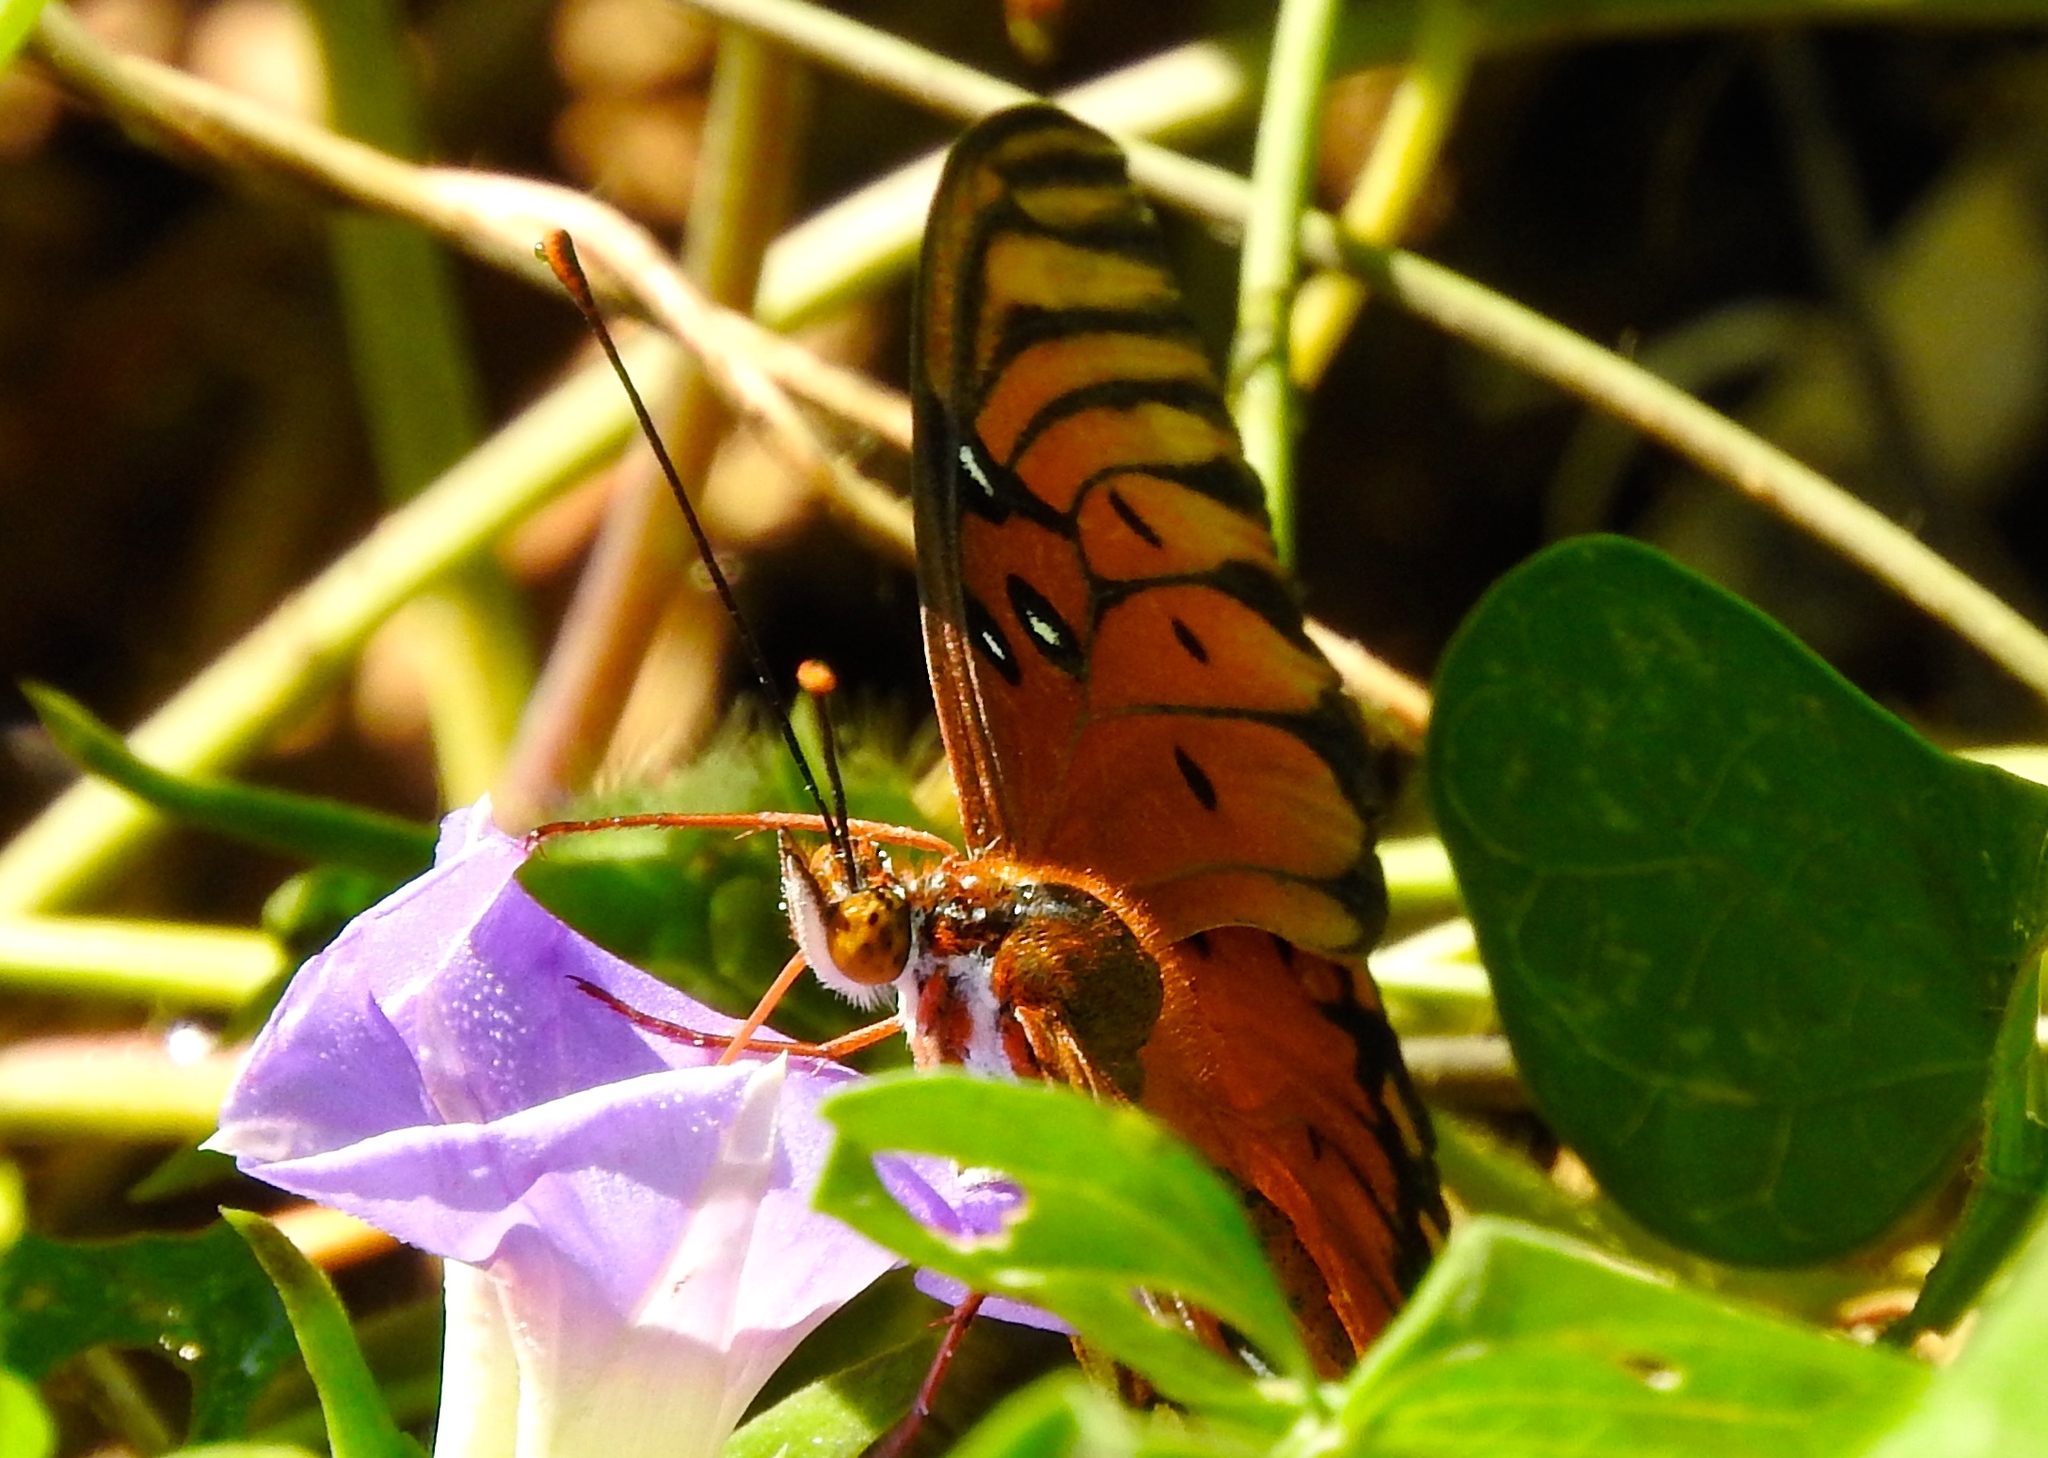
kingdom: Animalia
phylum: Arthropoda
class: Insecta
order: Lepidoptera
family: Nymphalidae
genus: Dione
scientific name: Dione vanillae
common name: Gulf fritillary
